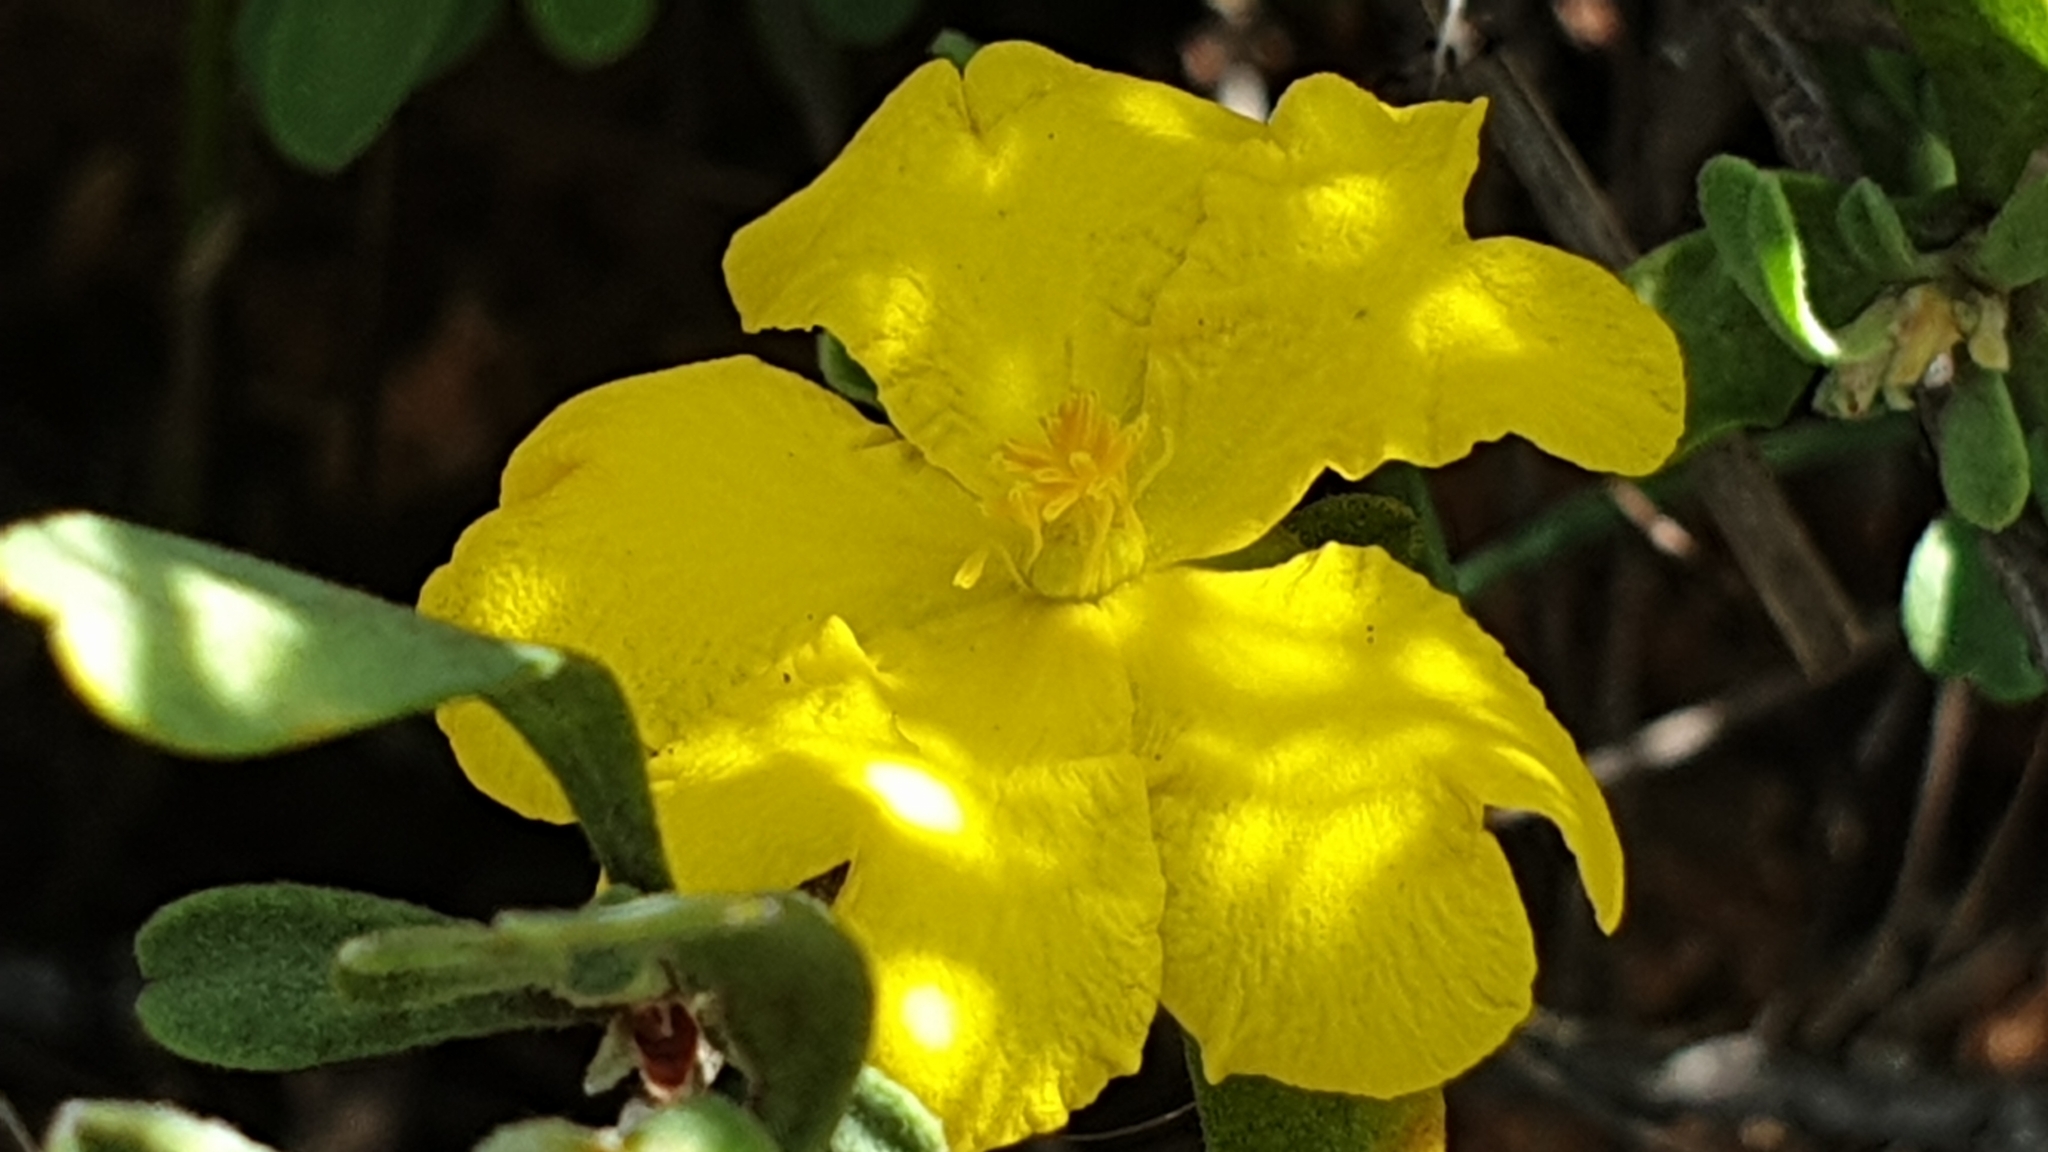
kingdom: Plantae
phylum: Tracheophyta
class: Magnoliopsida
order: Dilleniales
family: Dilleniaceae
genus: Hibbertia
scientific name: Hibbertia obtusifolia
